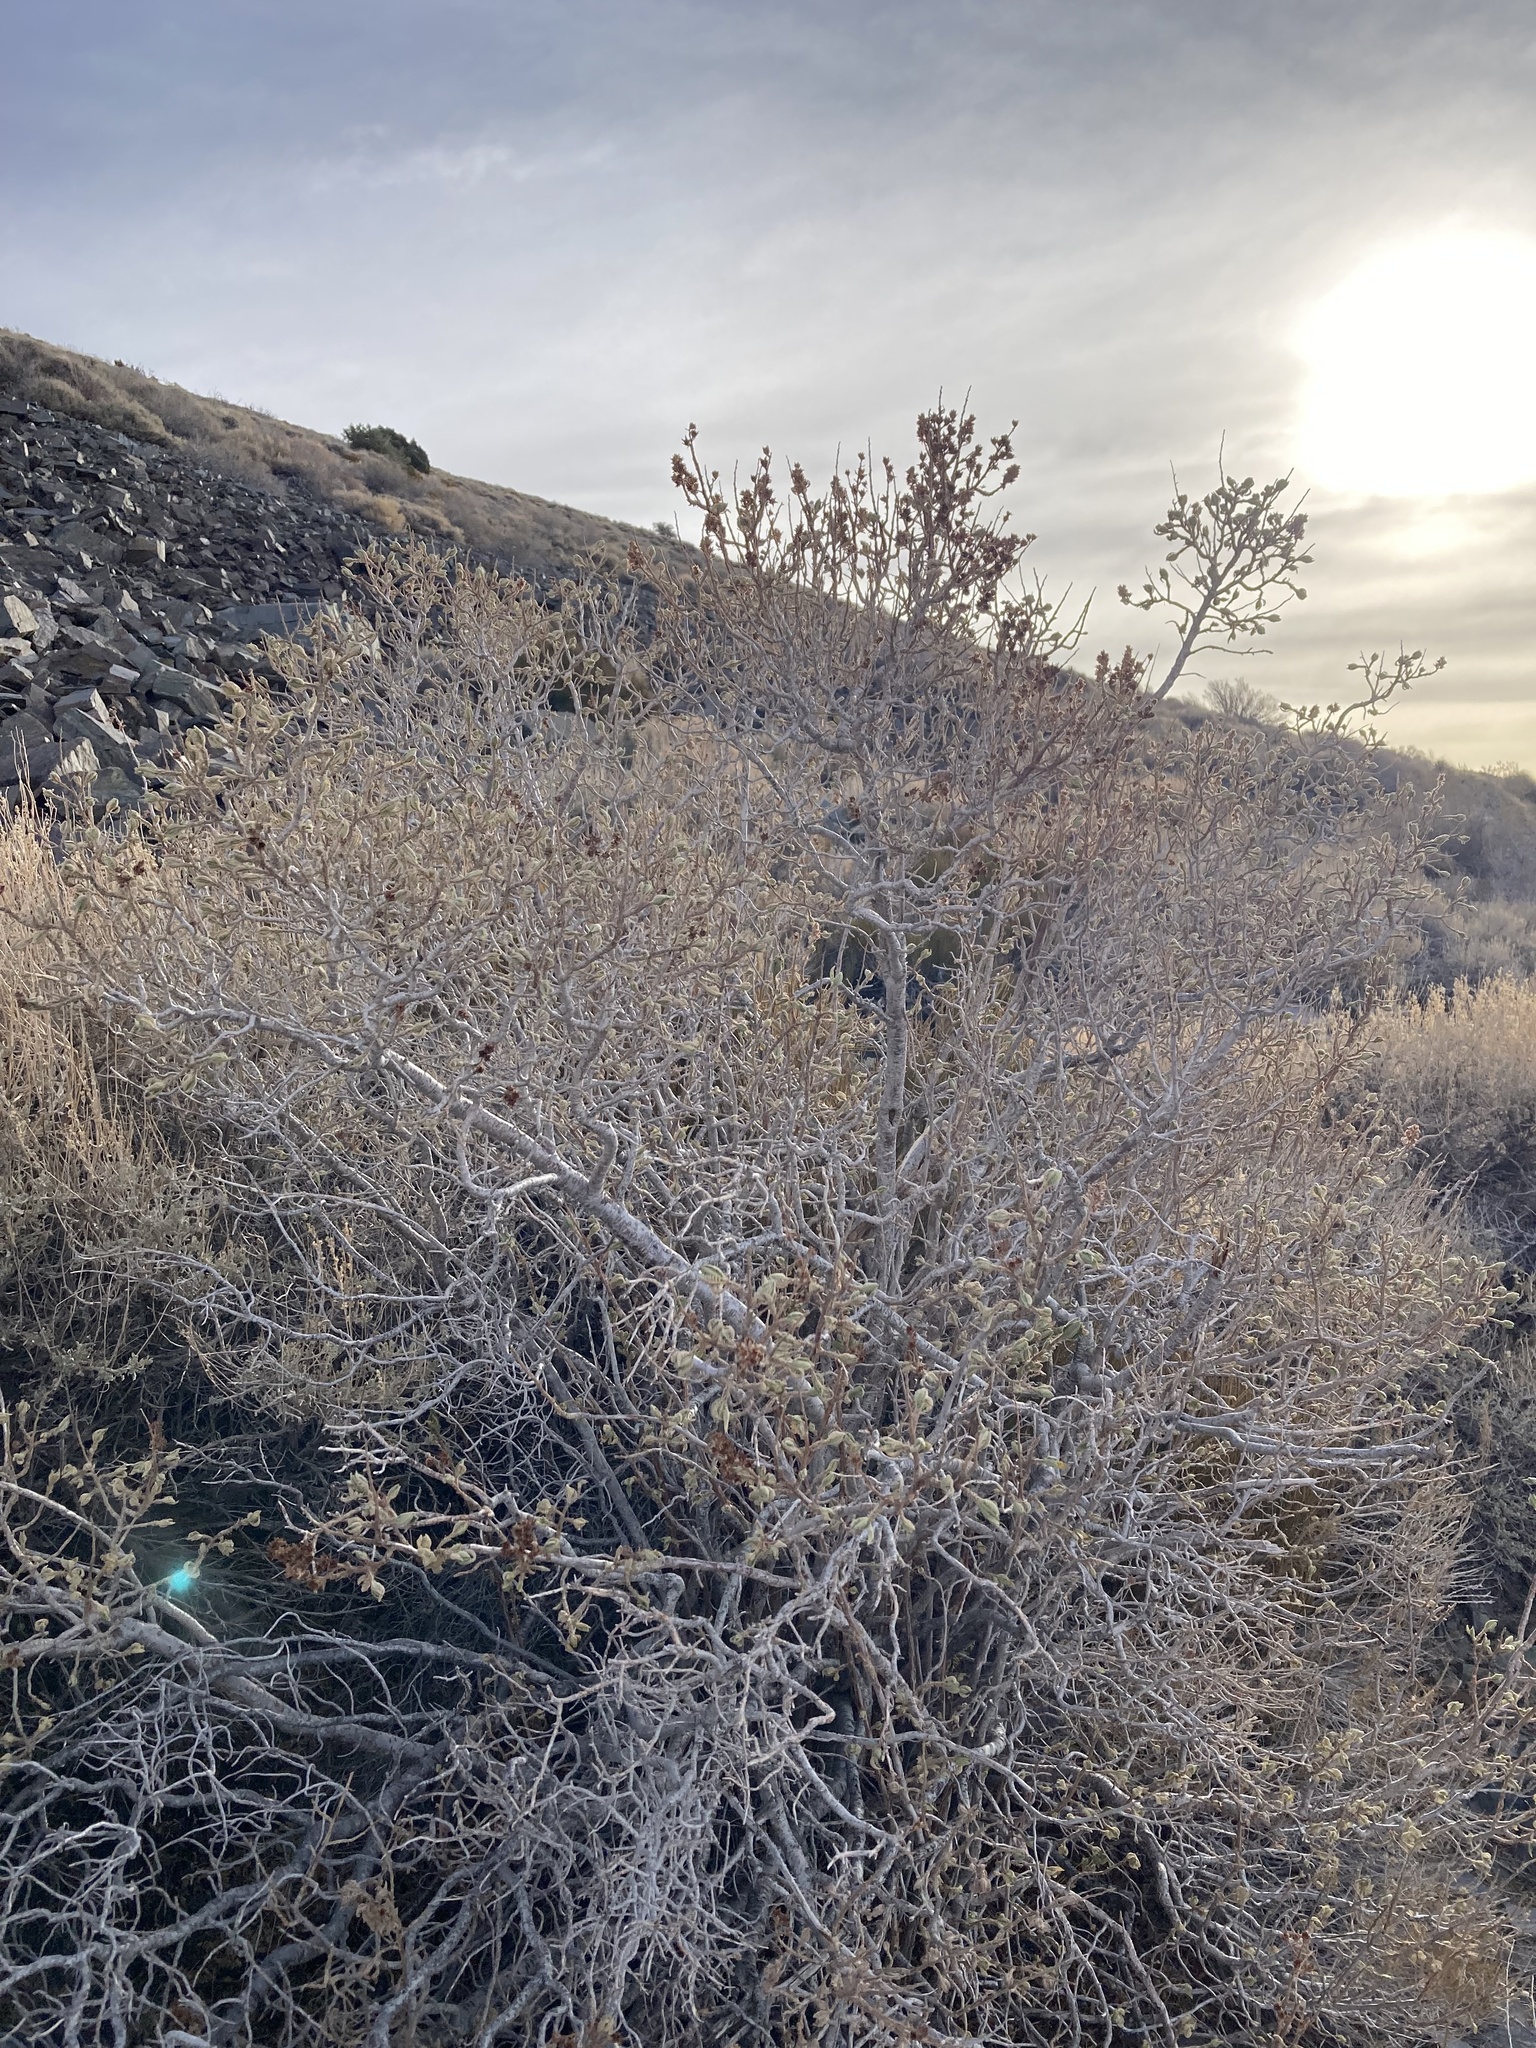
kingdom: Plantae
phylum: Tracheophyta
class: Magnoliopsida
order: Rosales
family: Rosaceae
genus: Chamaebatiaria
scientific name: Chamaebatiaria millefolium
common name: Fernbush
